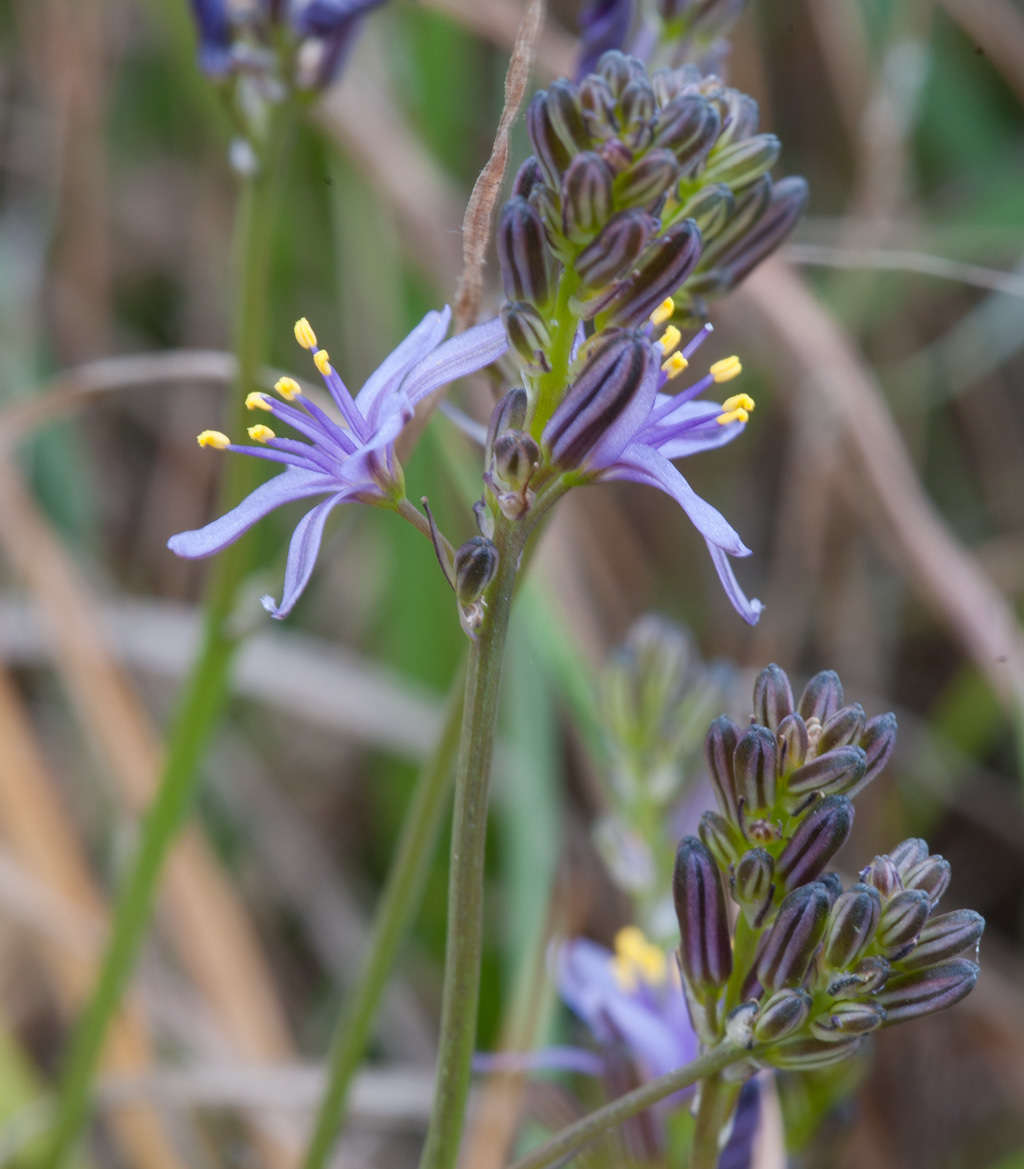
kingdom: Plantae
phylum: Tracheophyta
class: Liliopsida
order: Asparagales
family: Asphodelaceae
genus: Caesia
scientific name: Caesia calliantha
